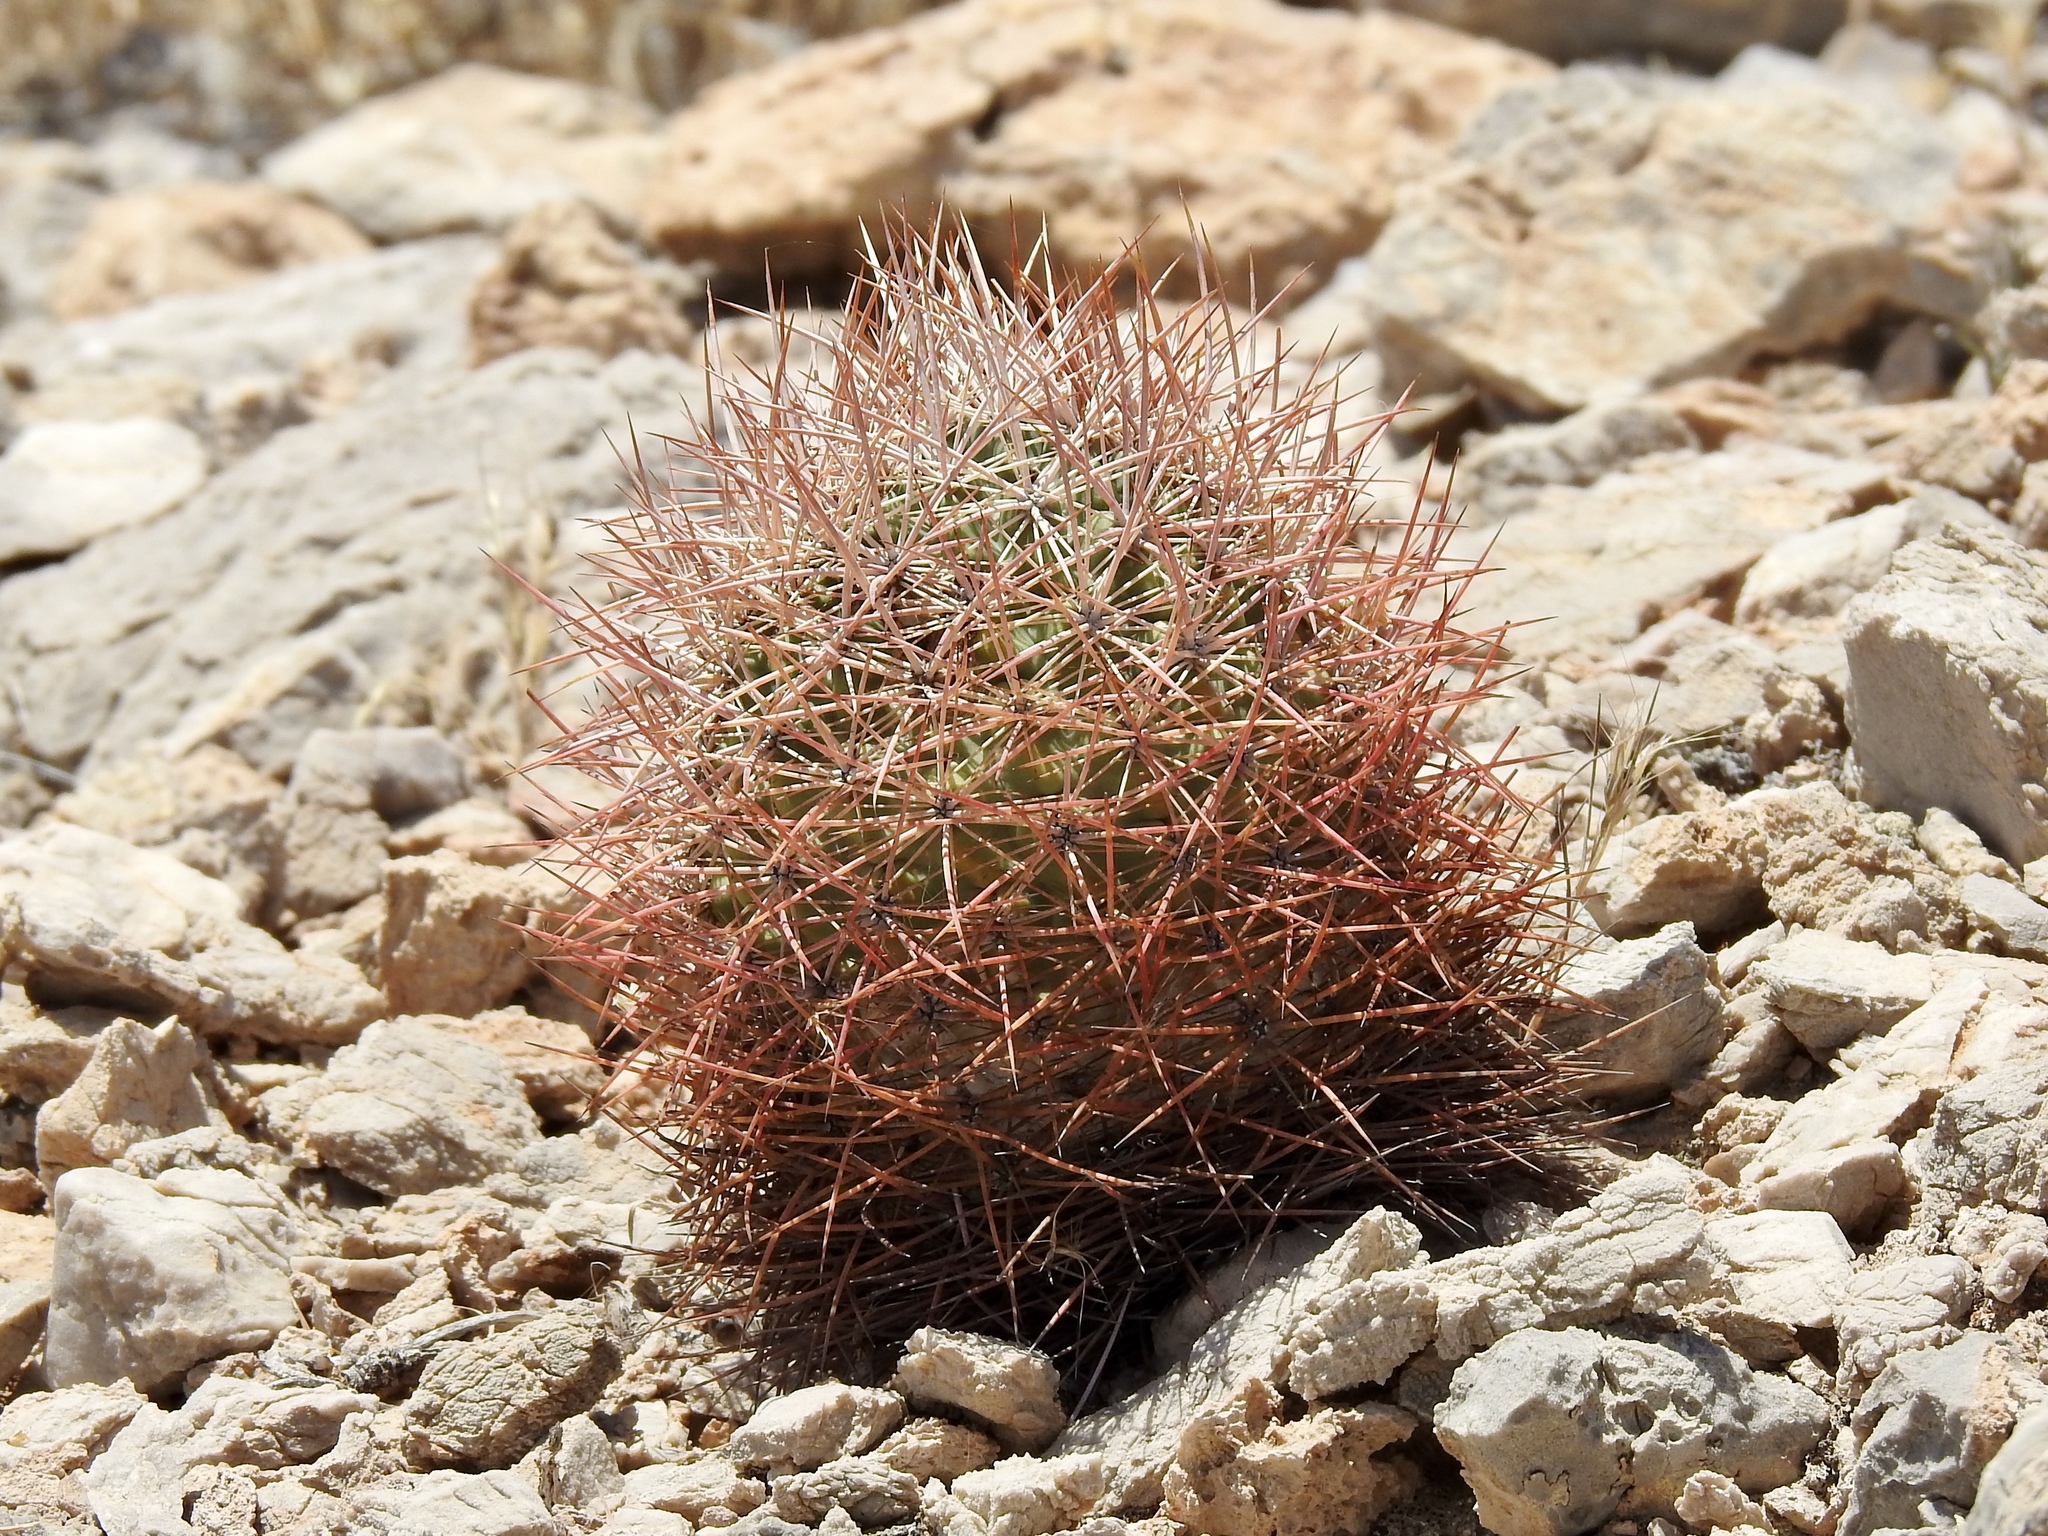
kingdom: Plantae
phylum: Tracheophyta
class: Magnoliopsida
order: Caryophyllales
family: Cactaceae
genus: Sclerocactus
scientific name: Sclerocactus johnsonii
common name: Eight-spine fishhook cactus
